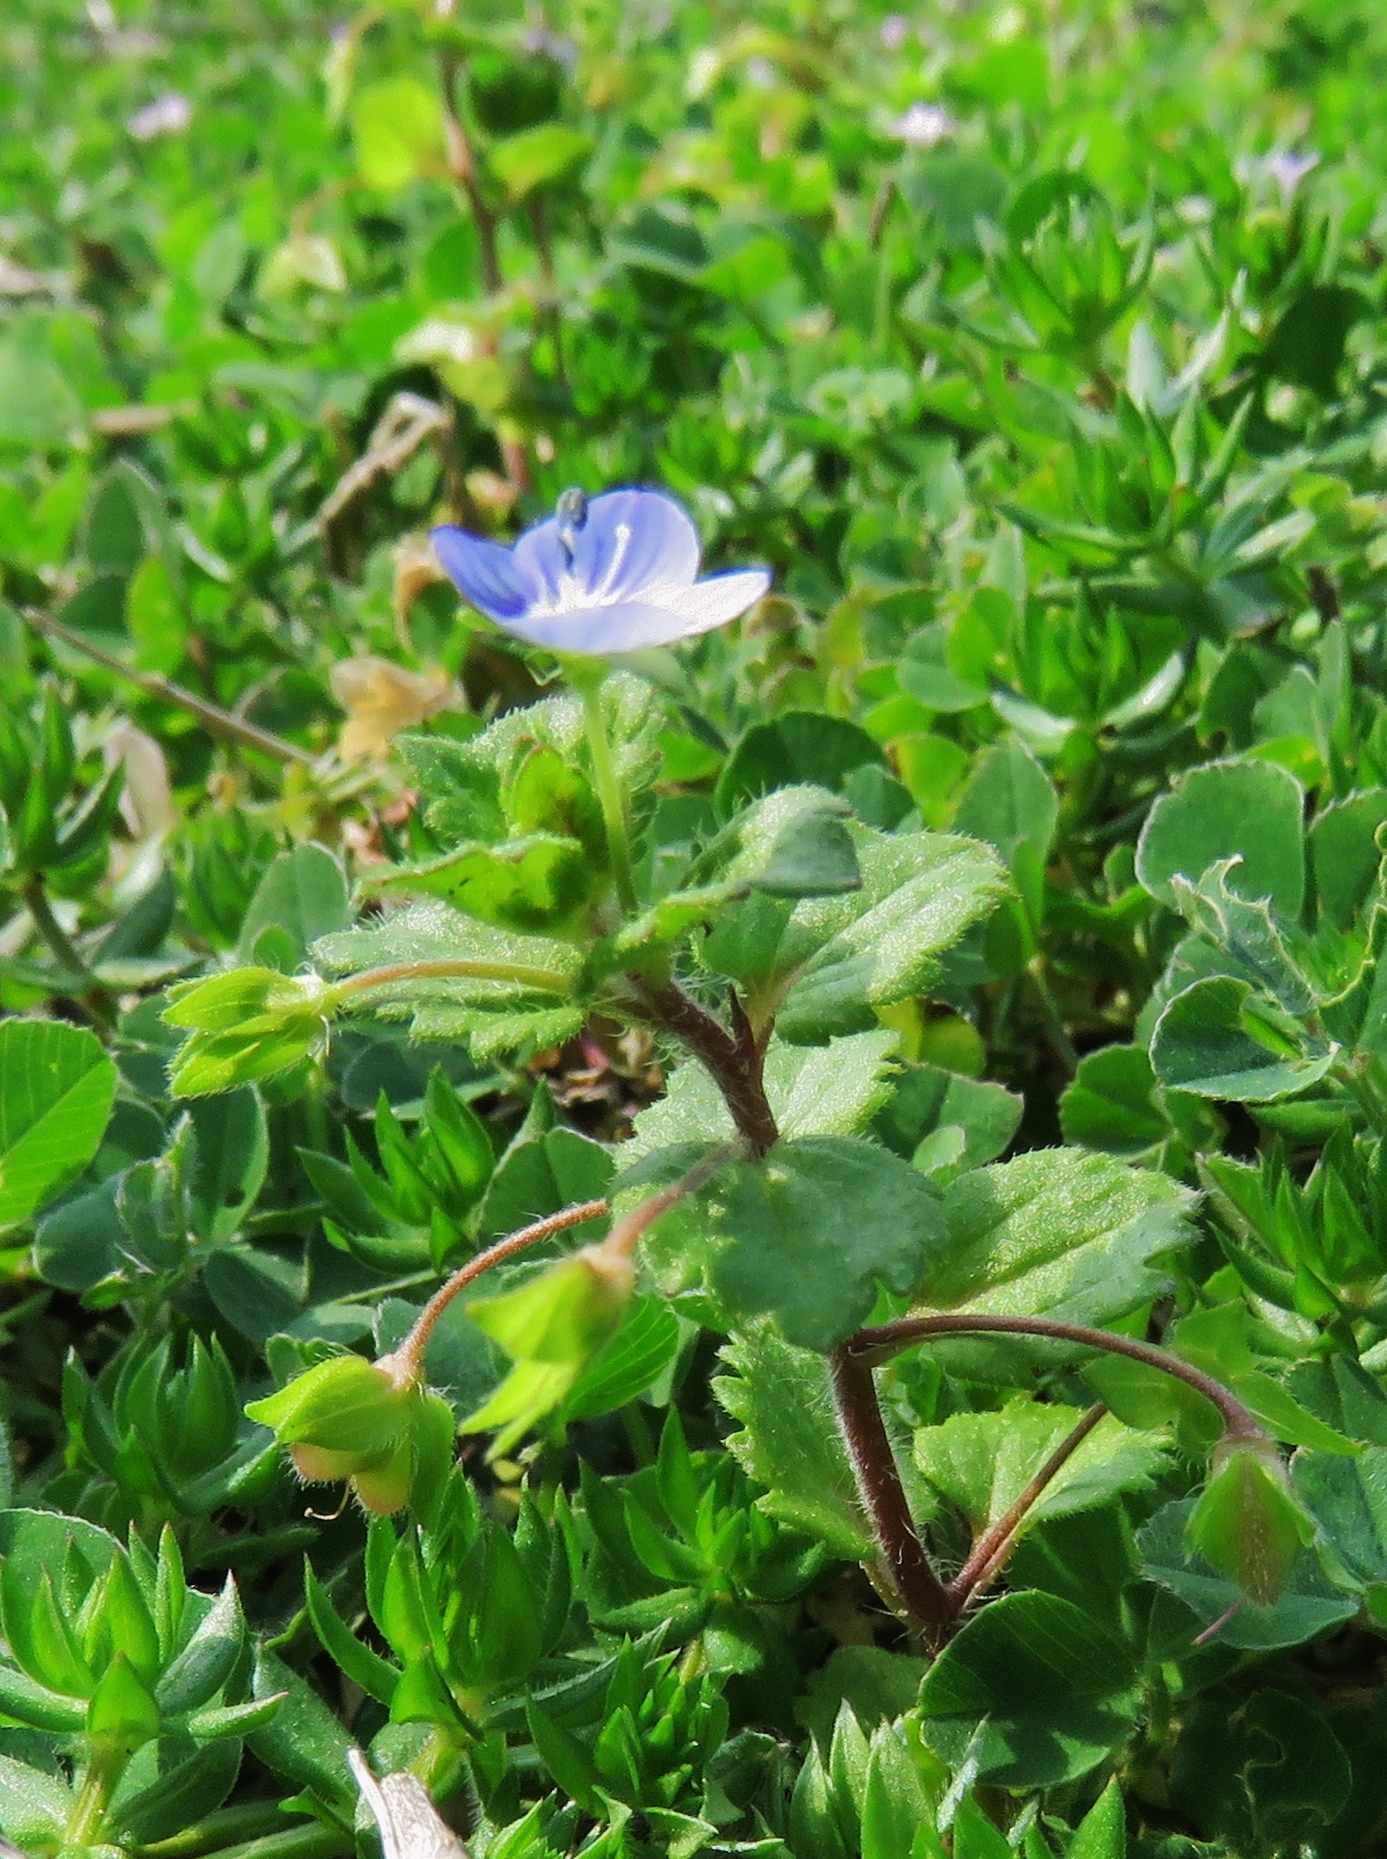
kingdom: Plantae
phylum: Tracheophyta
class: Magnoliopsida
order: Lamiales
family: Plantaginaceae
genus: Veronica
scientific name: Veronica persica
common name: Common field-speedwell
